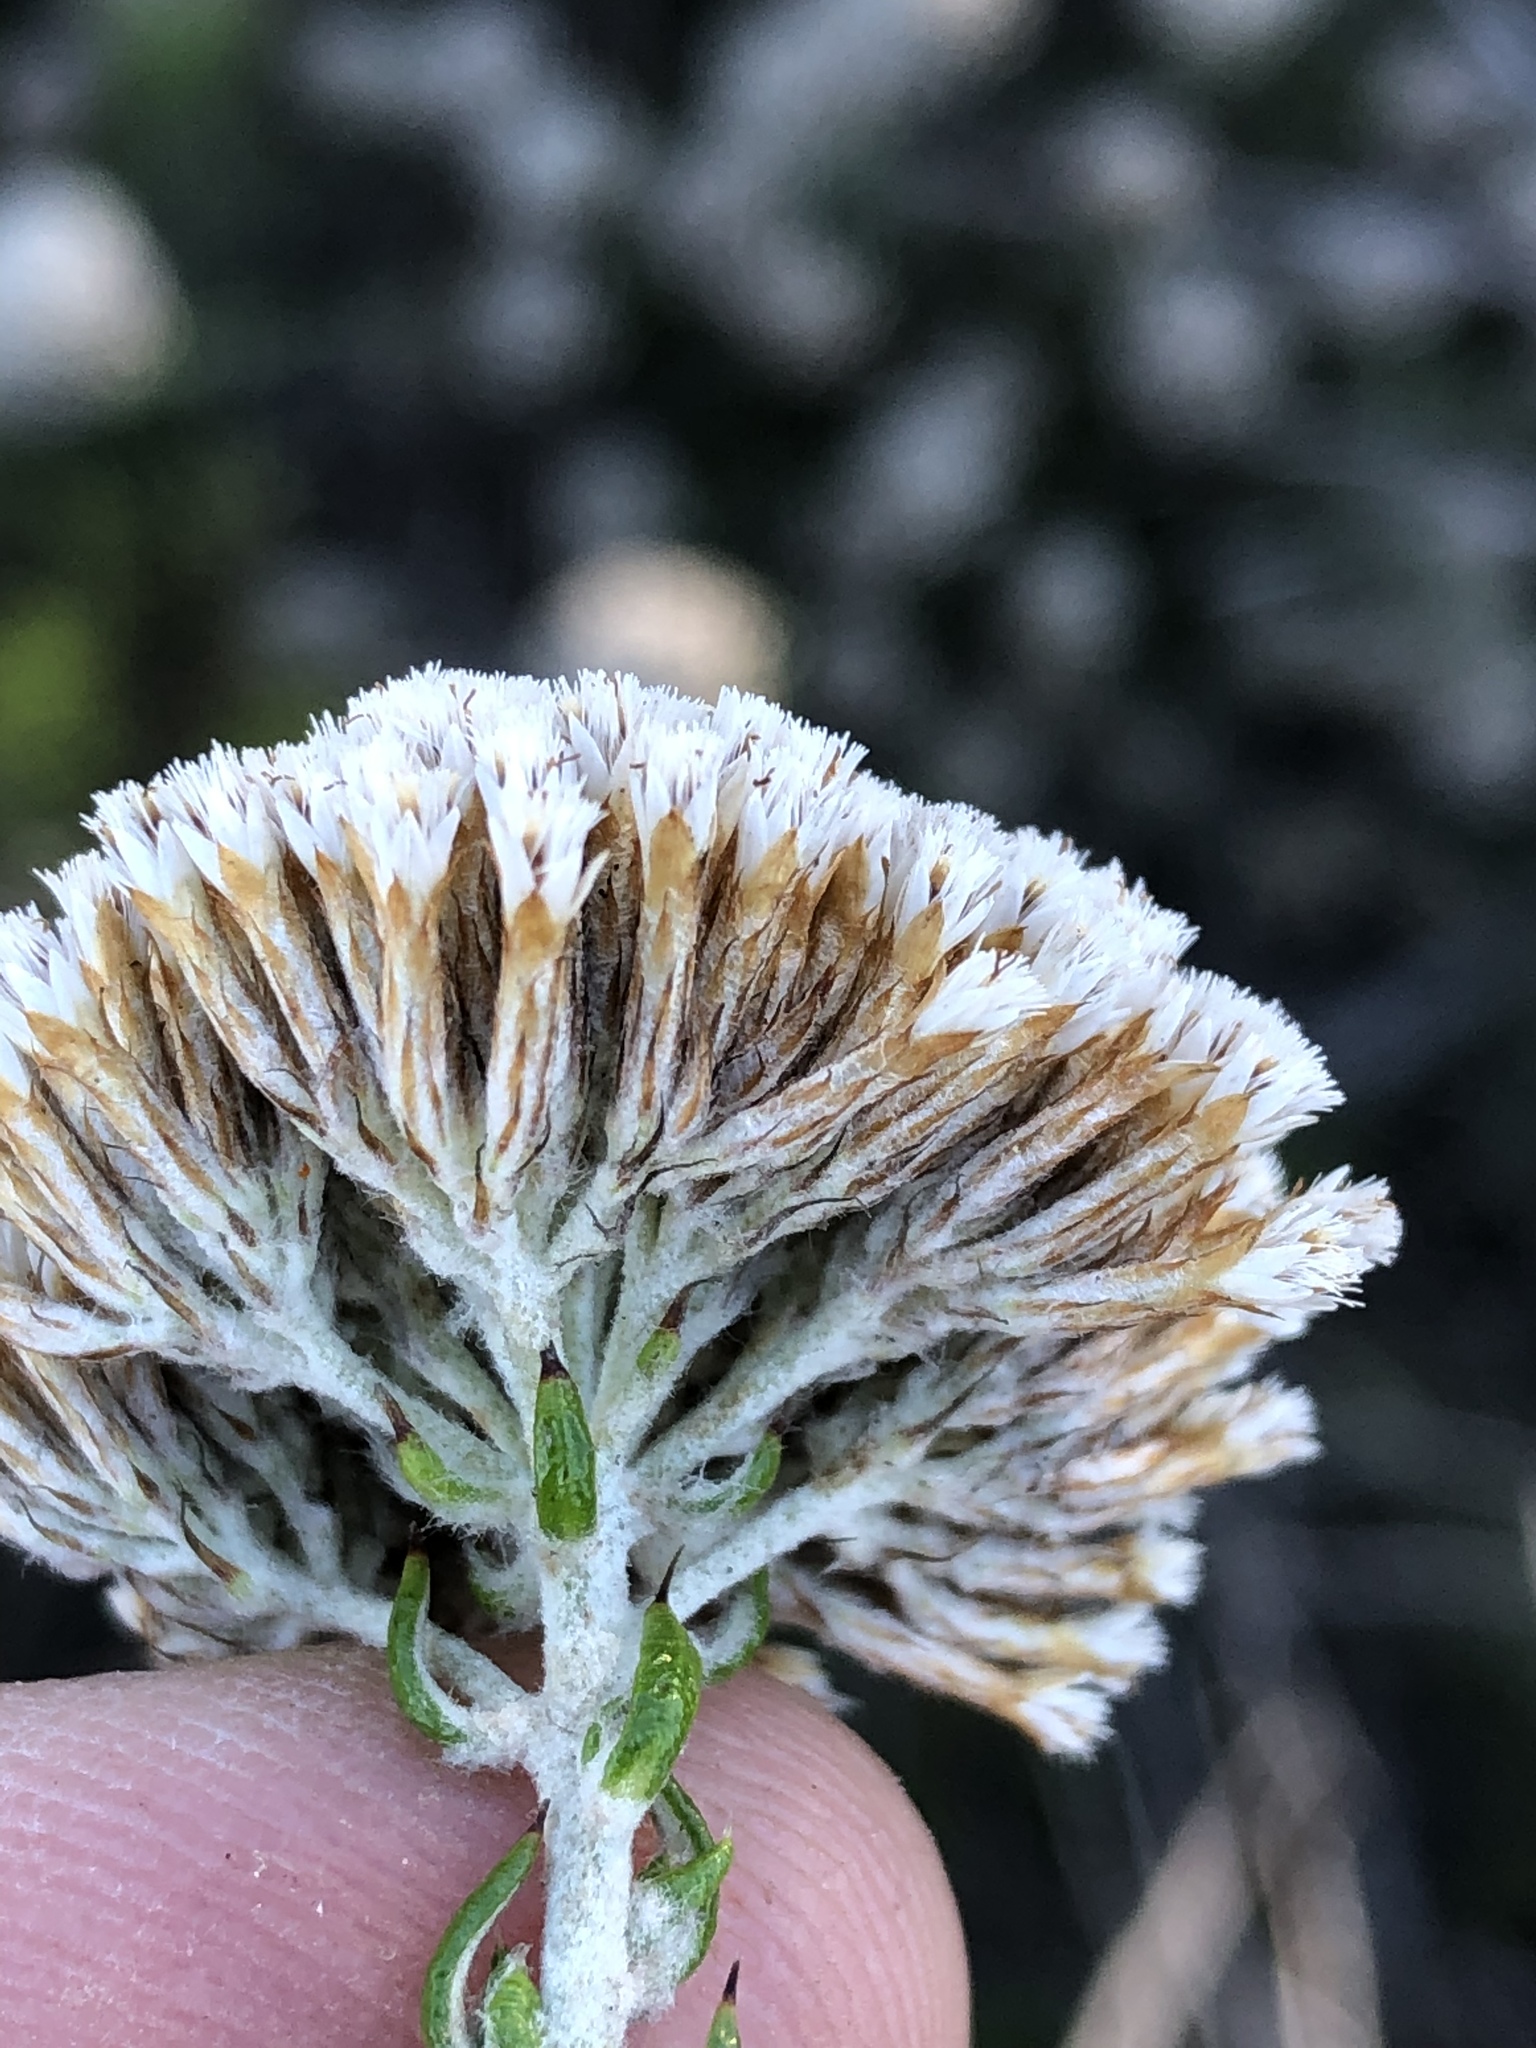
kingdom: Plantae
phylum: Tracheophyta
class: Magnoliopsida
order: Asterales
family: Asteraceae
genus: Metalasia
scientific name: Metalasia densa
